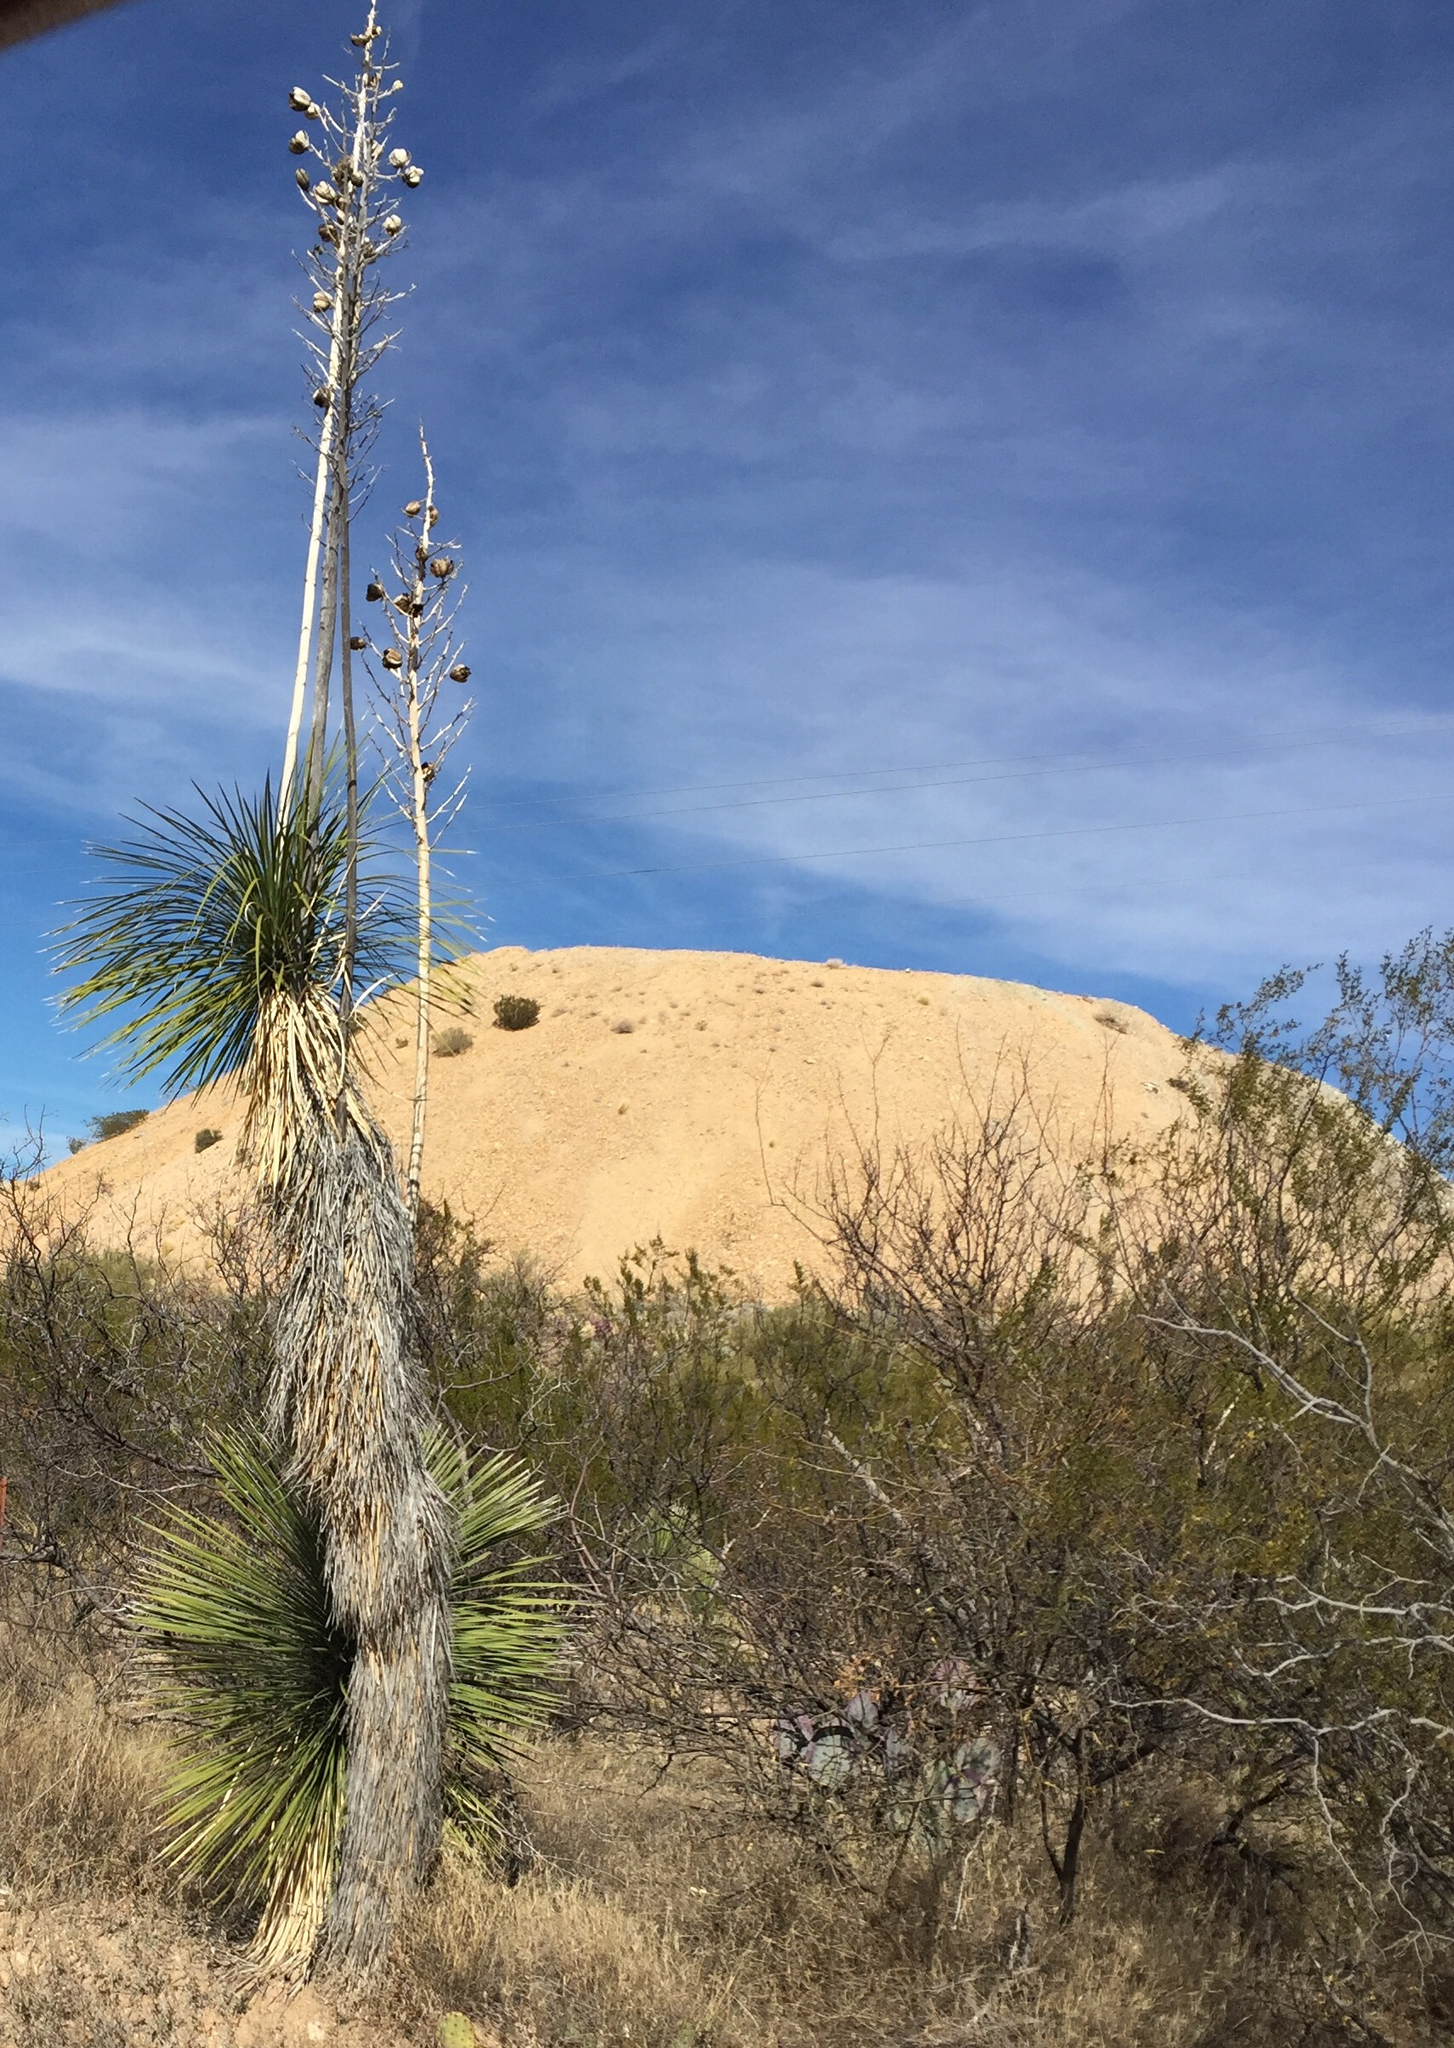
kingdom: Plantae
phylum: Tracheophyta
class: Liliopsida
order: Asparagales
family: Asparagaceae
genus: Yucca
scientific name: Yucca elata
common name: Palmella
